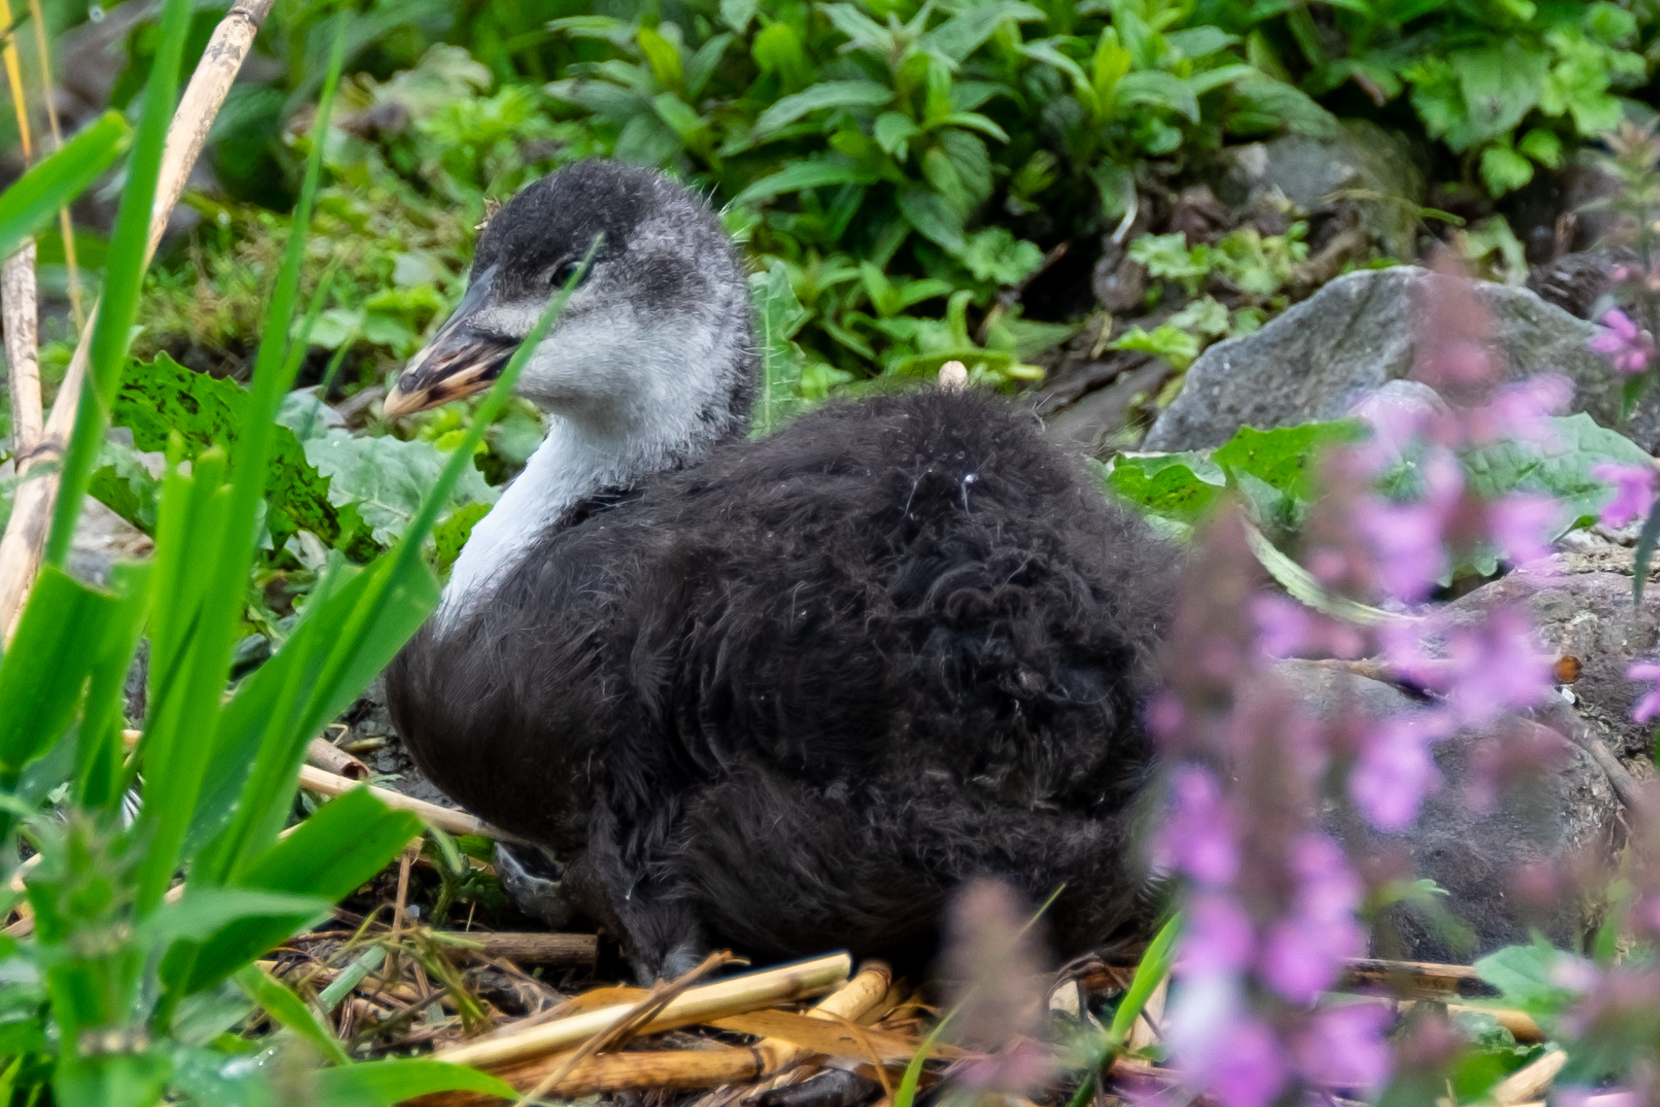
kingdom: Animalia
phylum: Chordata
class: Aves
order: Gruiformes
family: Rallidae
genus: Fulica
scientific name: Fulica atra
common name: Eurasian coot
